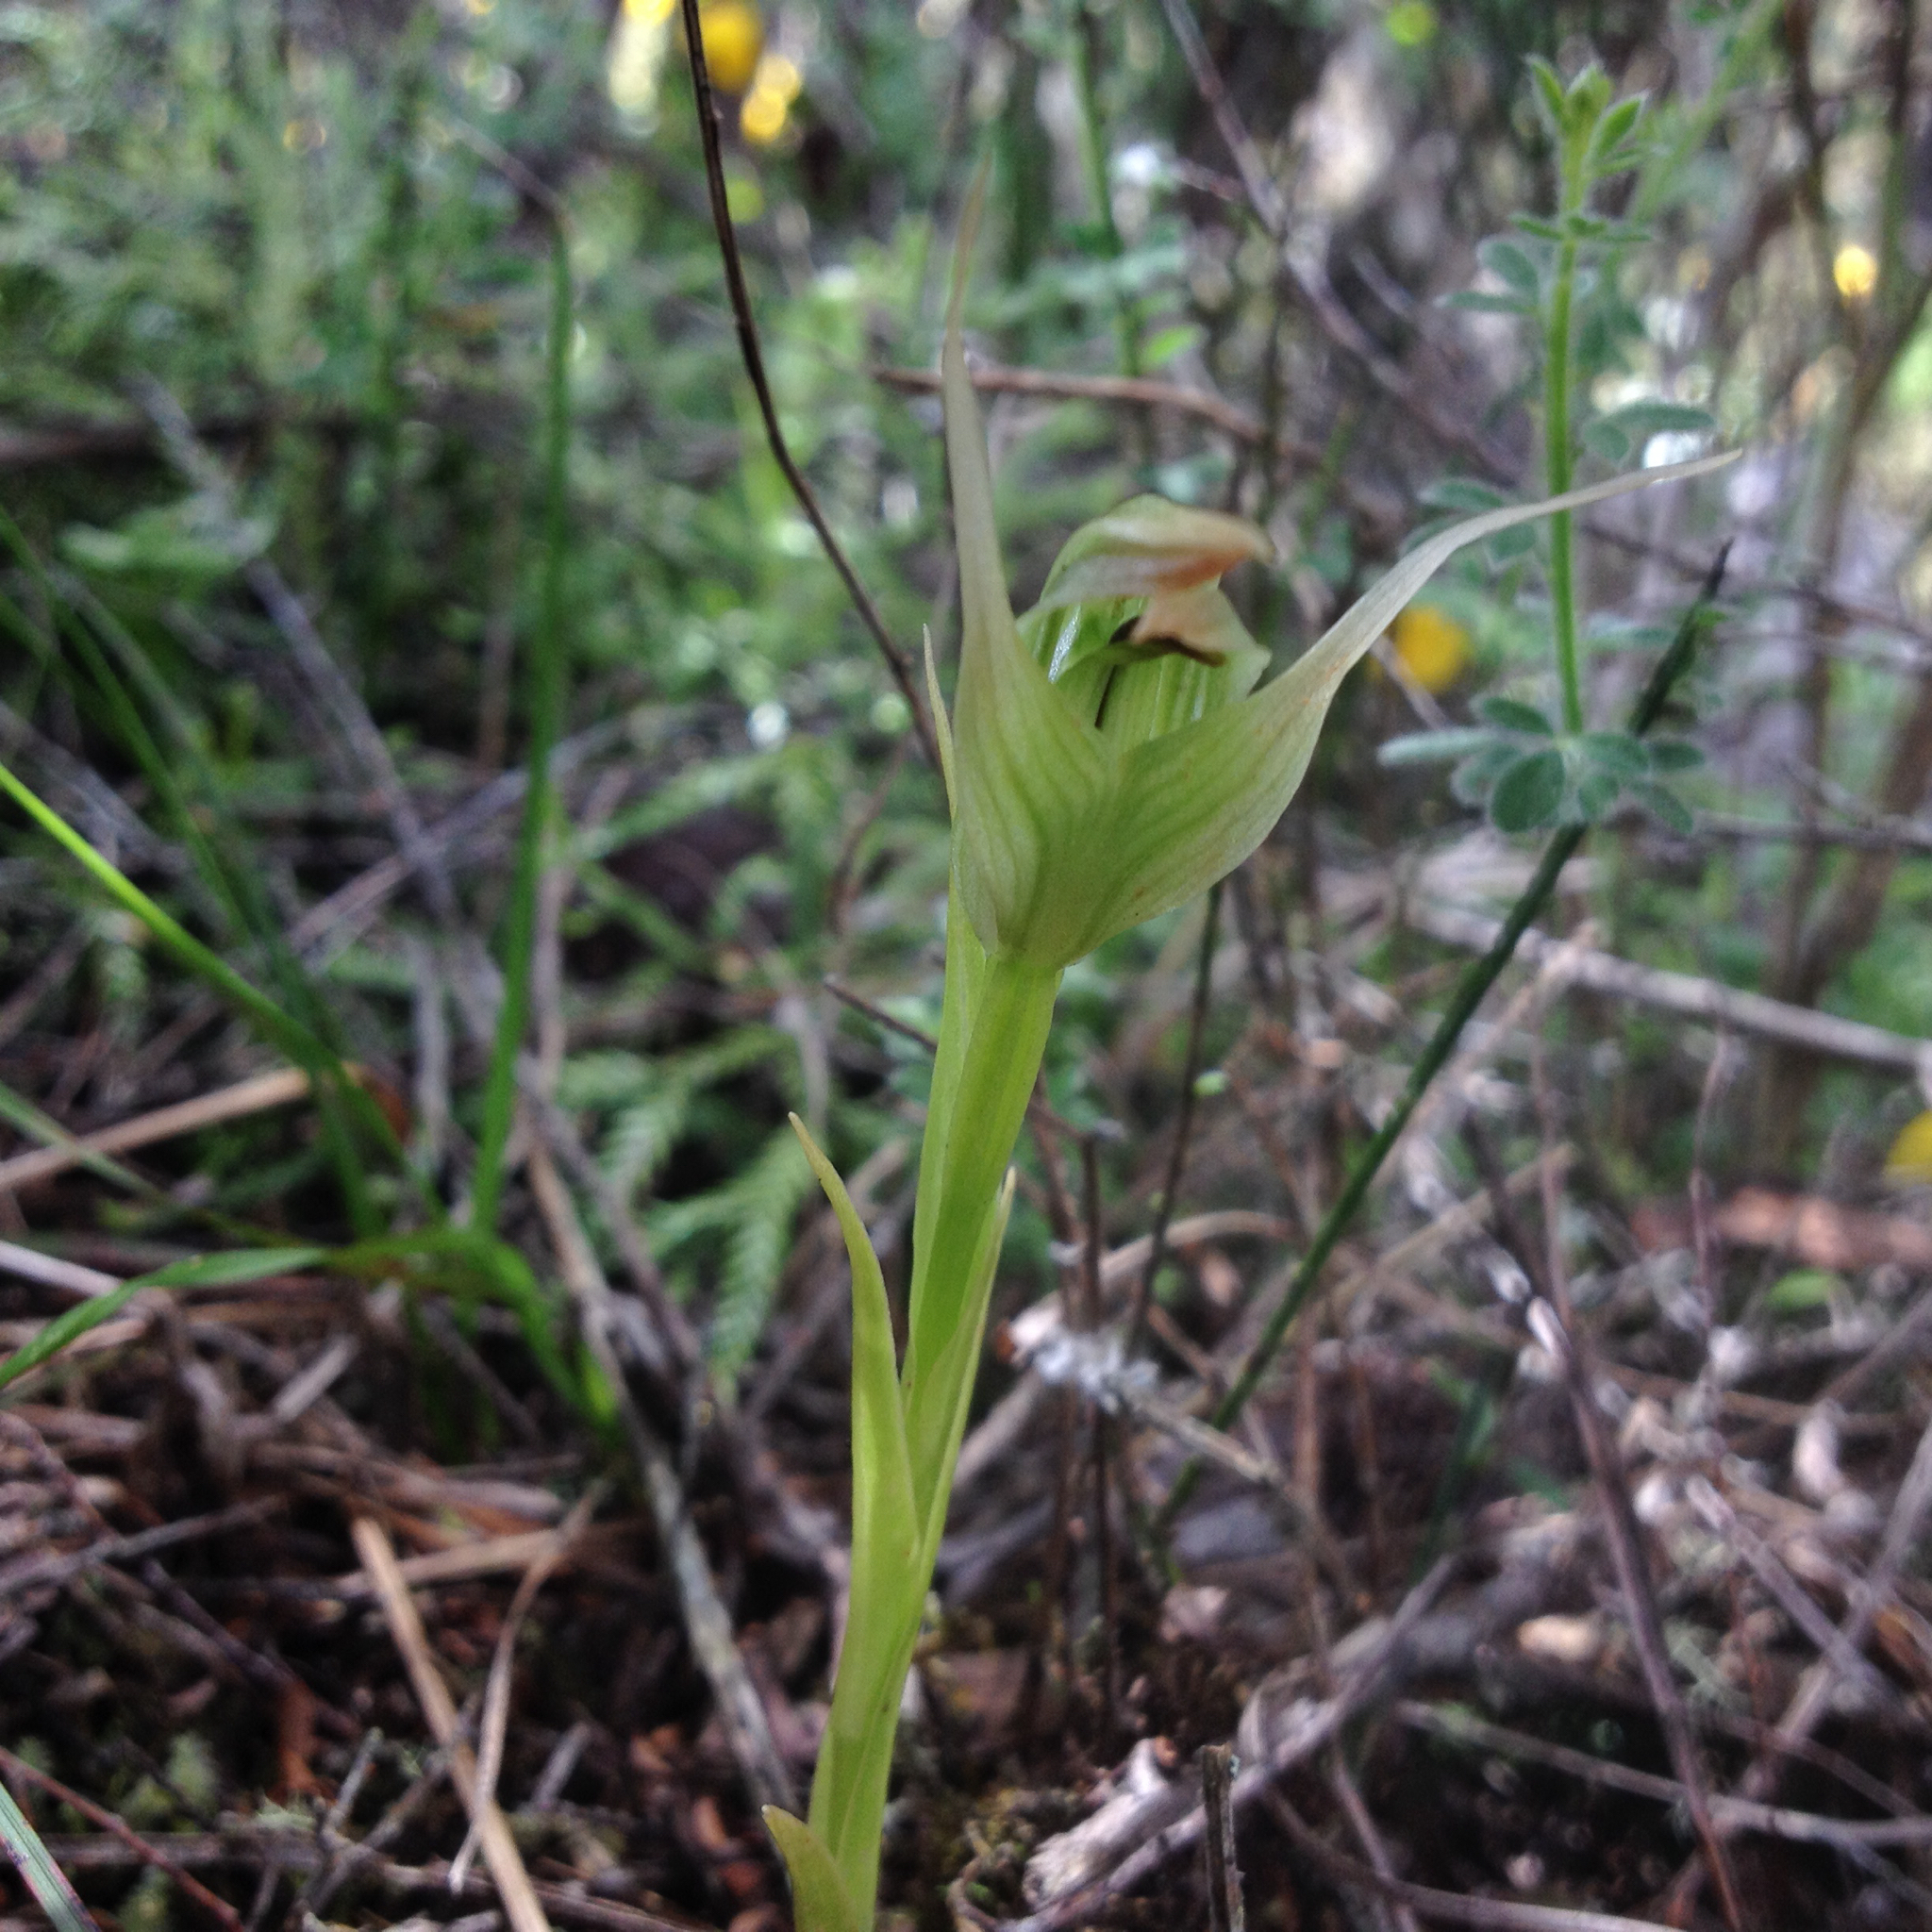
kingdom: Plantae
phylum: Tracheophyta
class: Liliopsida
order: Asparagales
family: Orchidaceae
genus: Pterostylis
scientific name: Pterostylis montana
